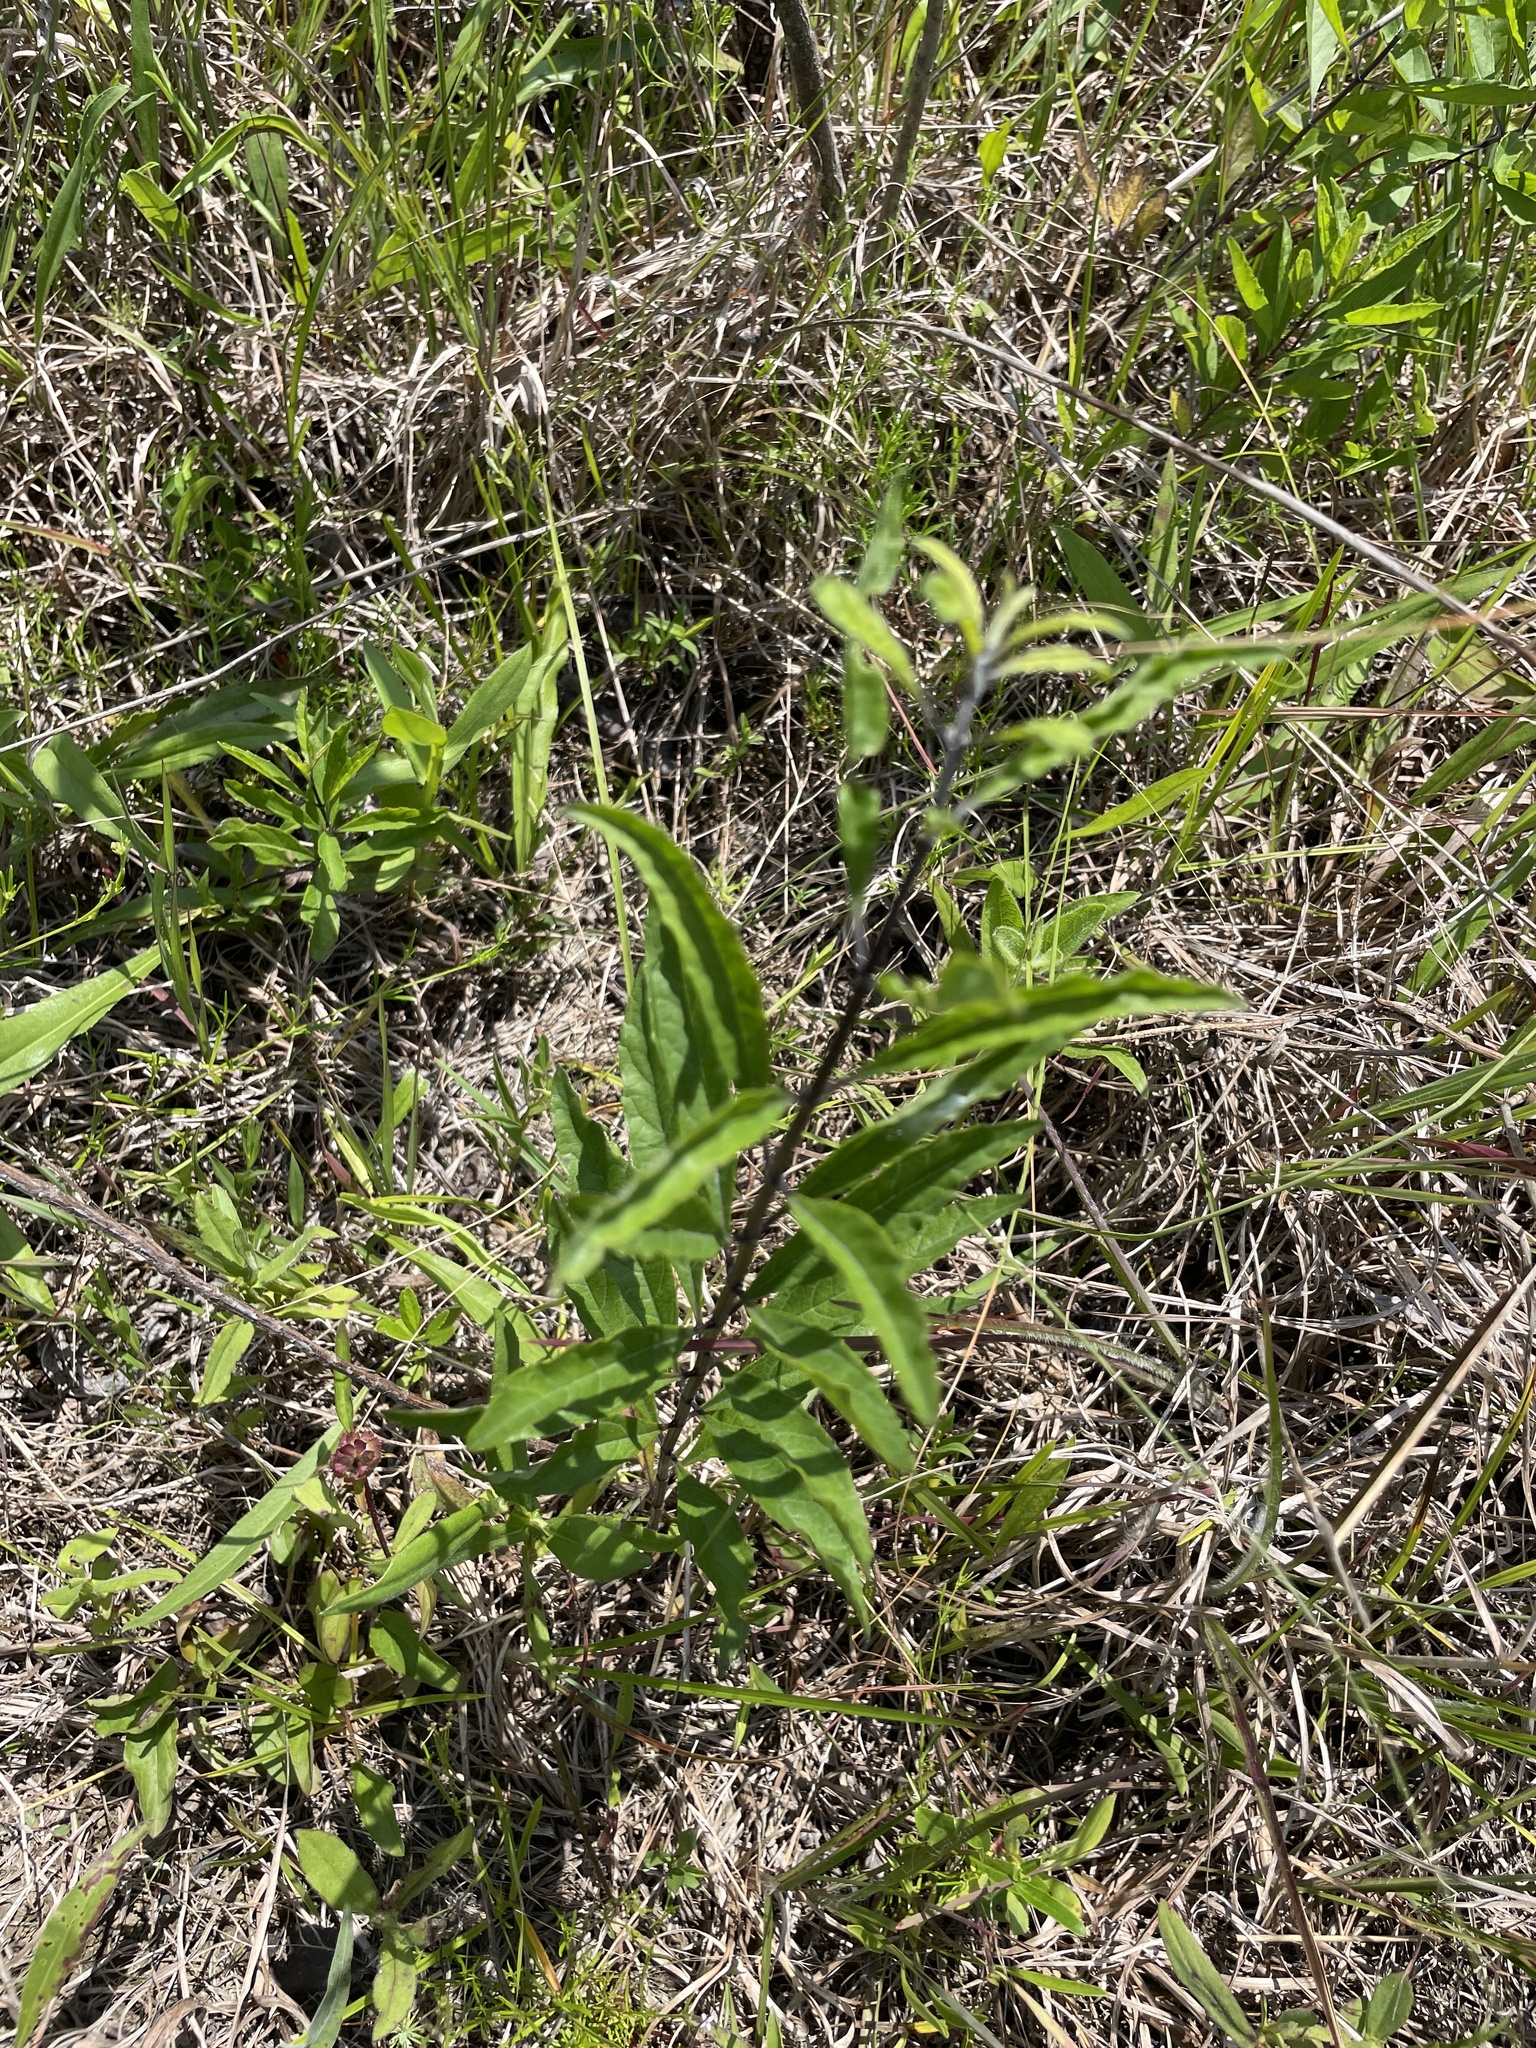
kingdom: Plantae
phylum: Tracheophyta
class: Magnoliopsida
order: Lamiales
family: Lamiaceae
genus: Salvia
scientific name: Salvia azurea
